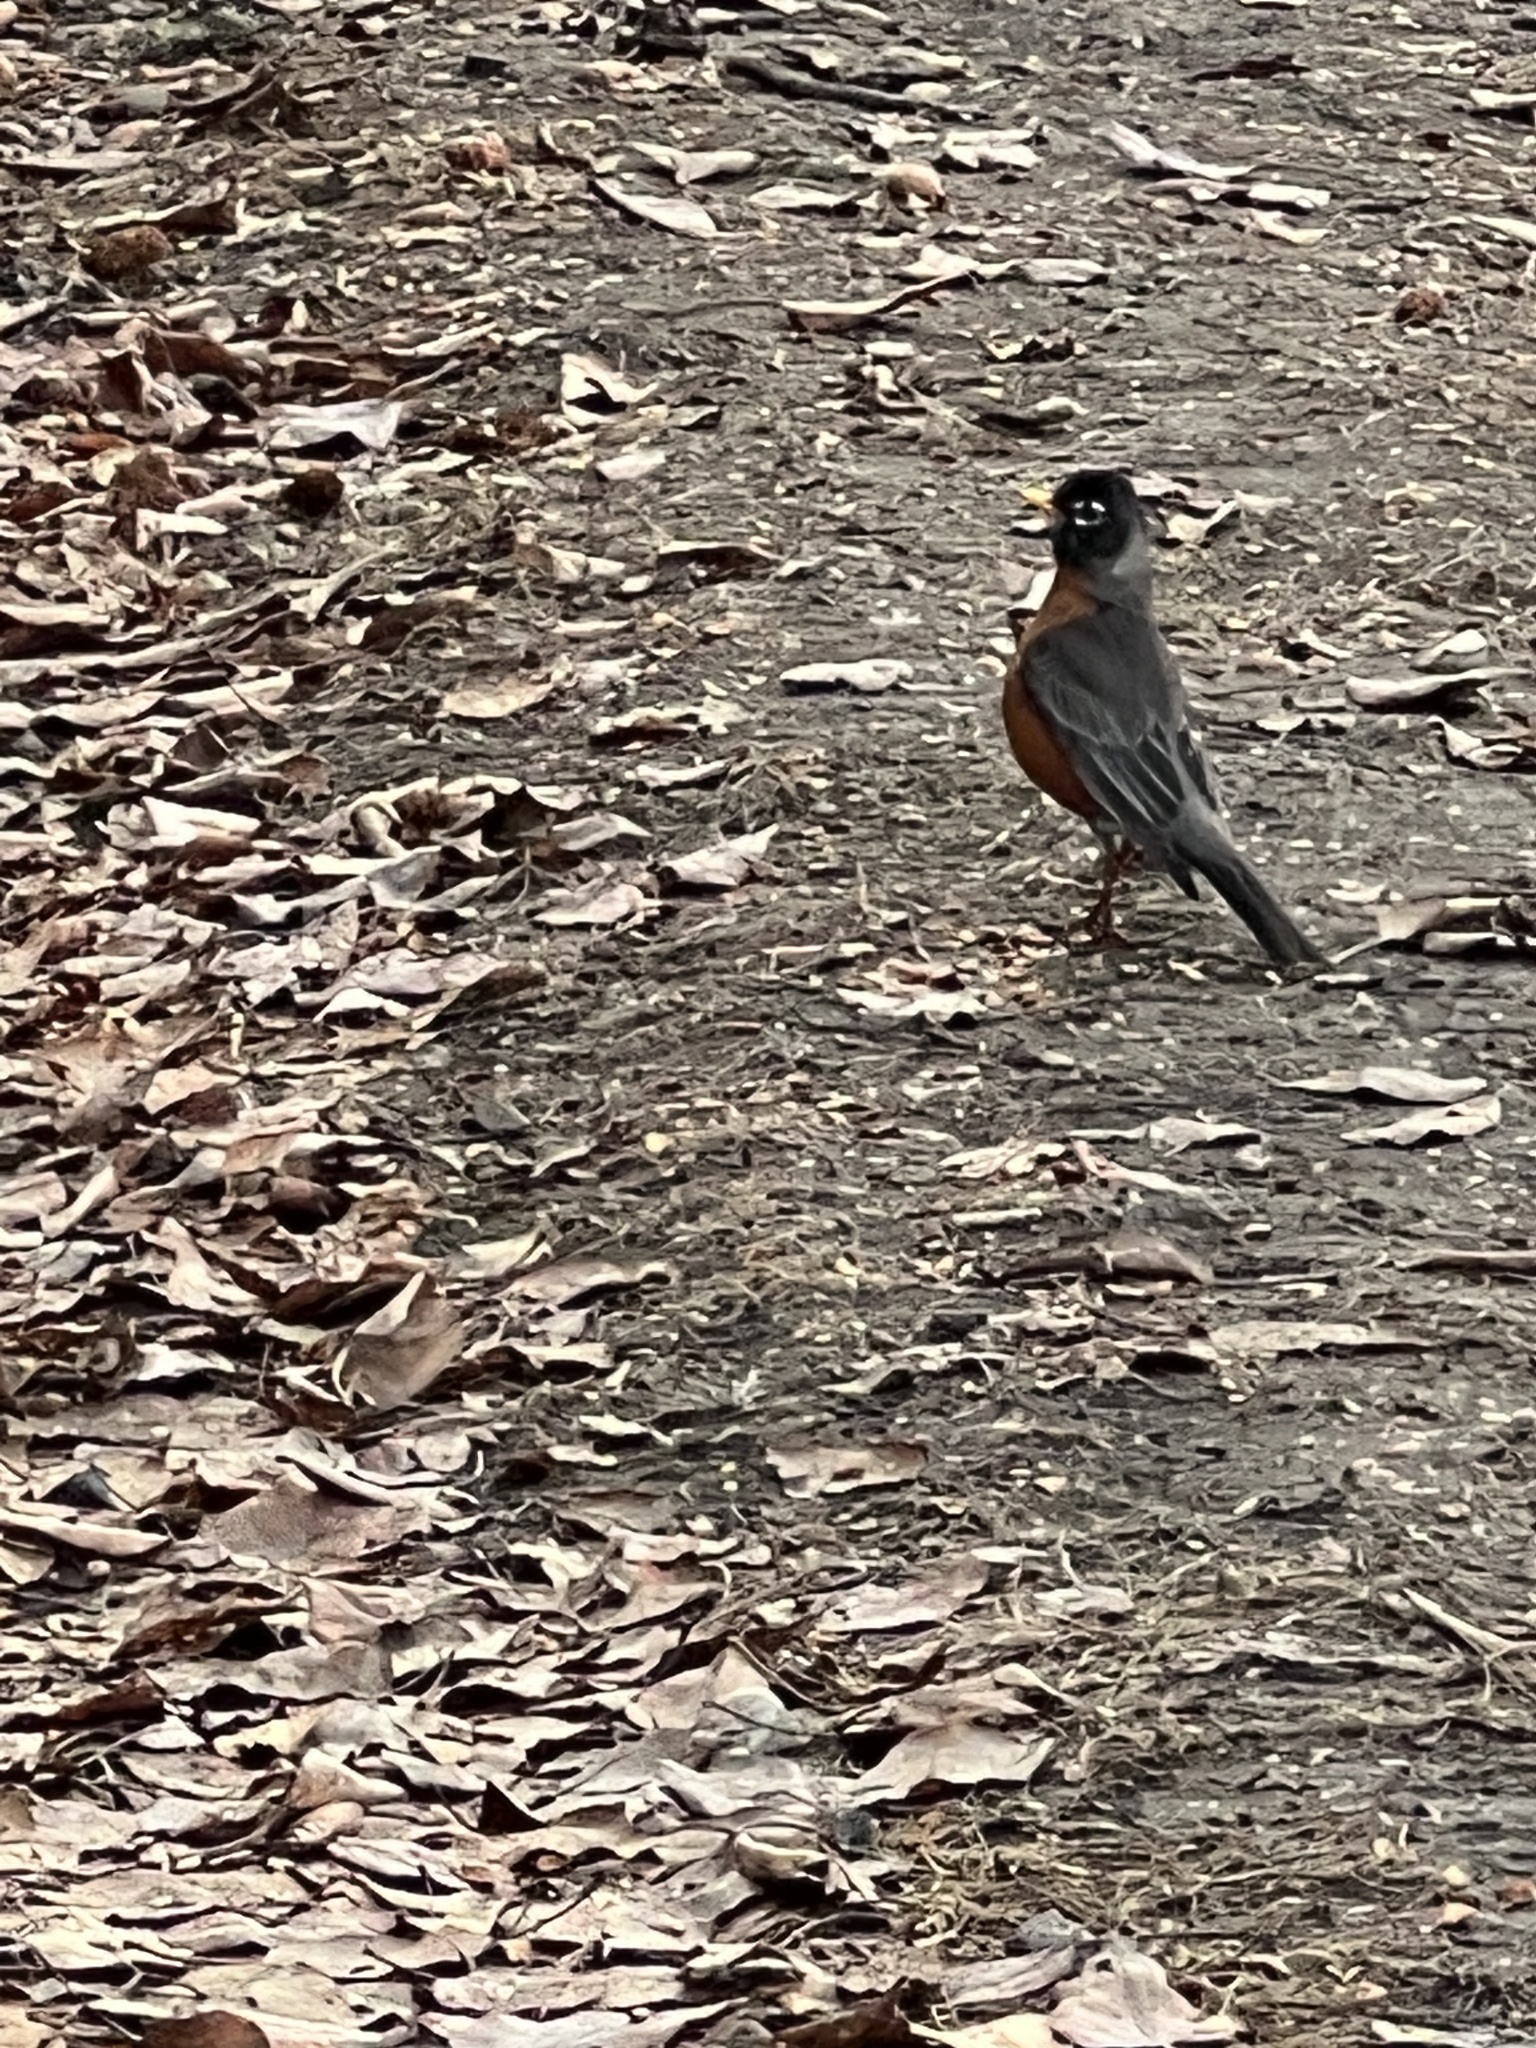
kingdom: Animalia
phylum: Chordata
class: Aves
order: Passeriformes
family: Turdidae
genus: Turdus
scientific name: Turdus migratorius
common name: American robin
